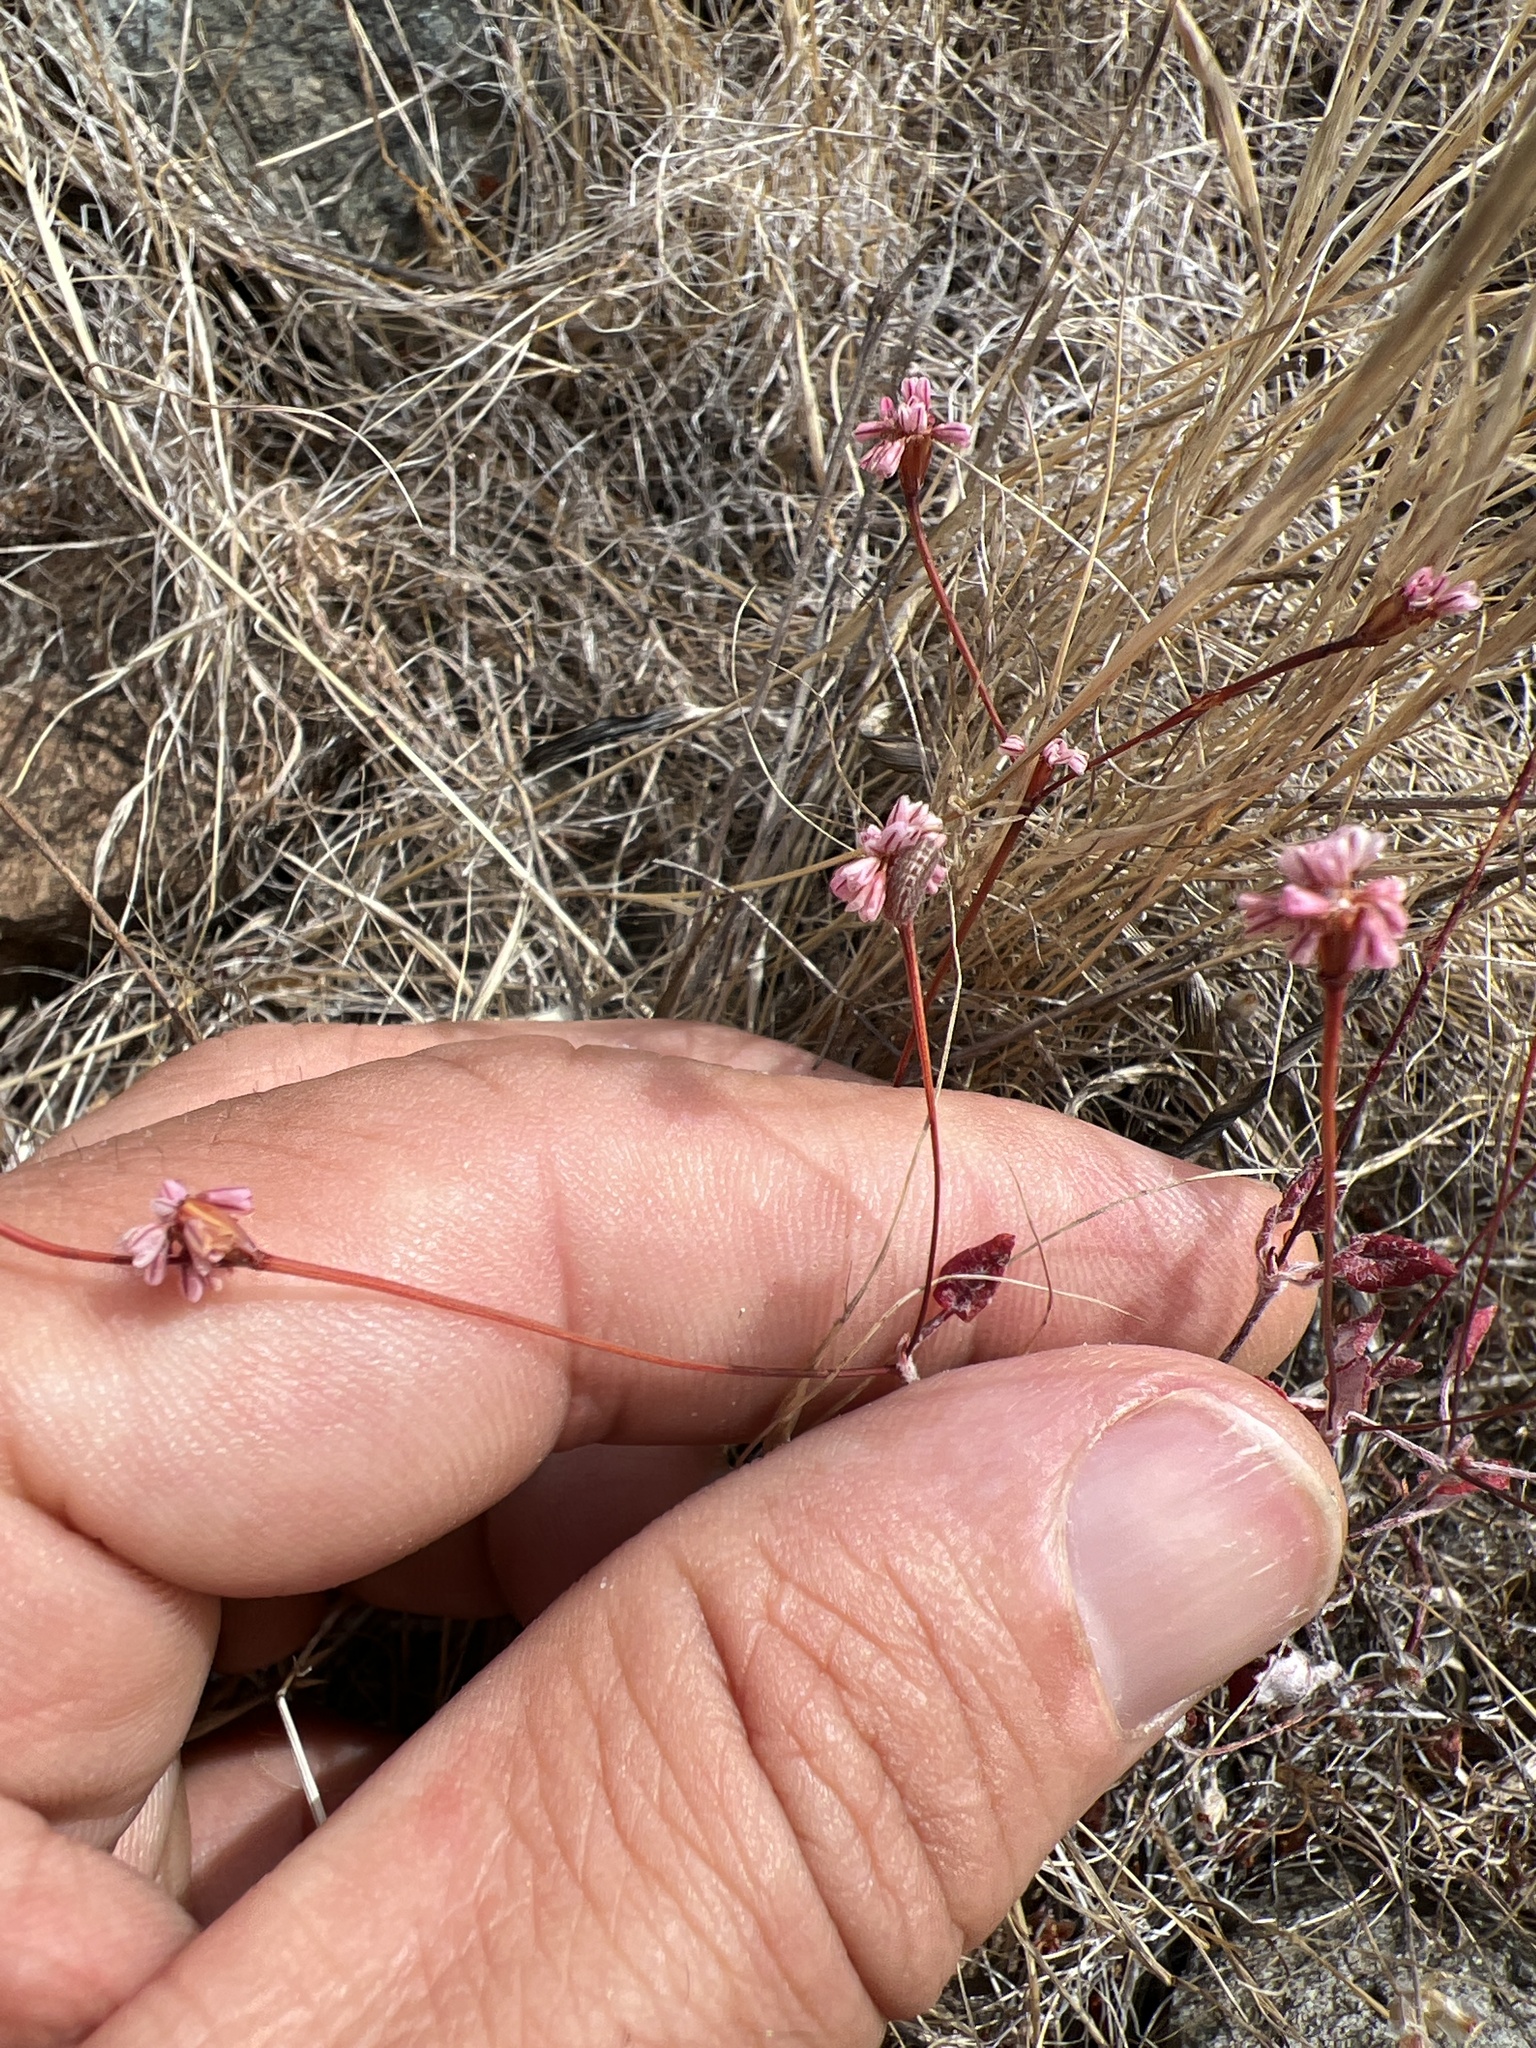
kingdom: Plantae
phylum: Tracheophyta
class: Magnoliopsida
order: Caryophyllales
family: Polygonaceae
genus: Eriogonum
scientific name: Eriogonum luteolum
